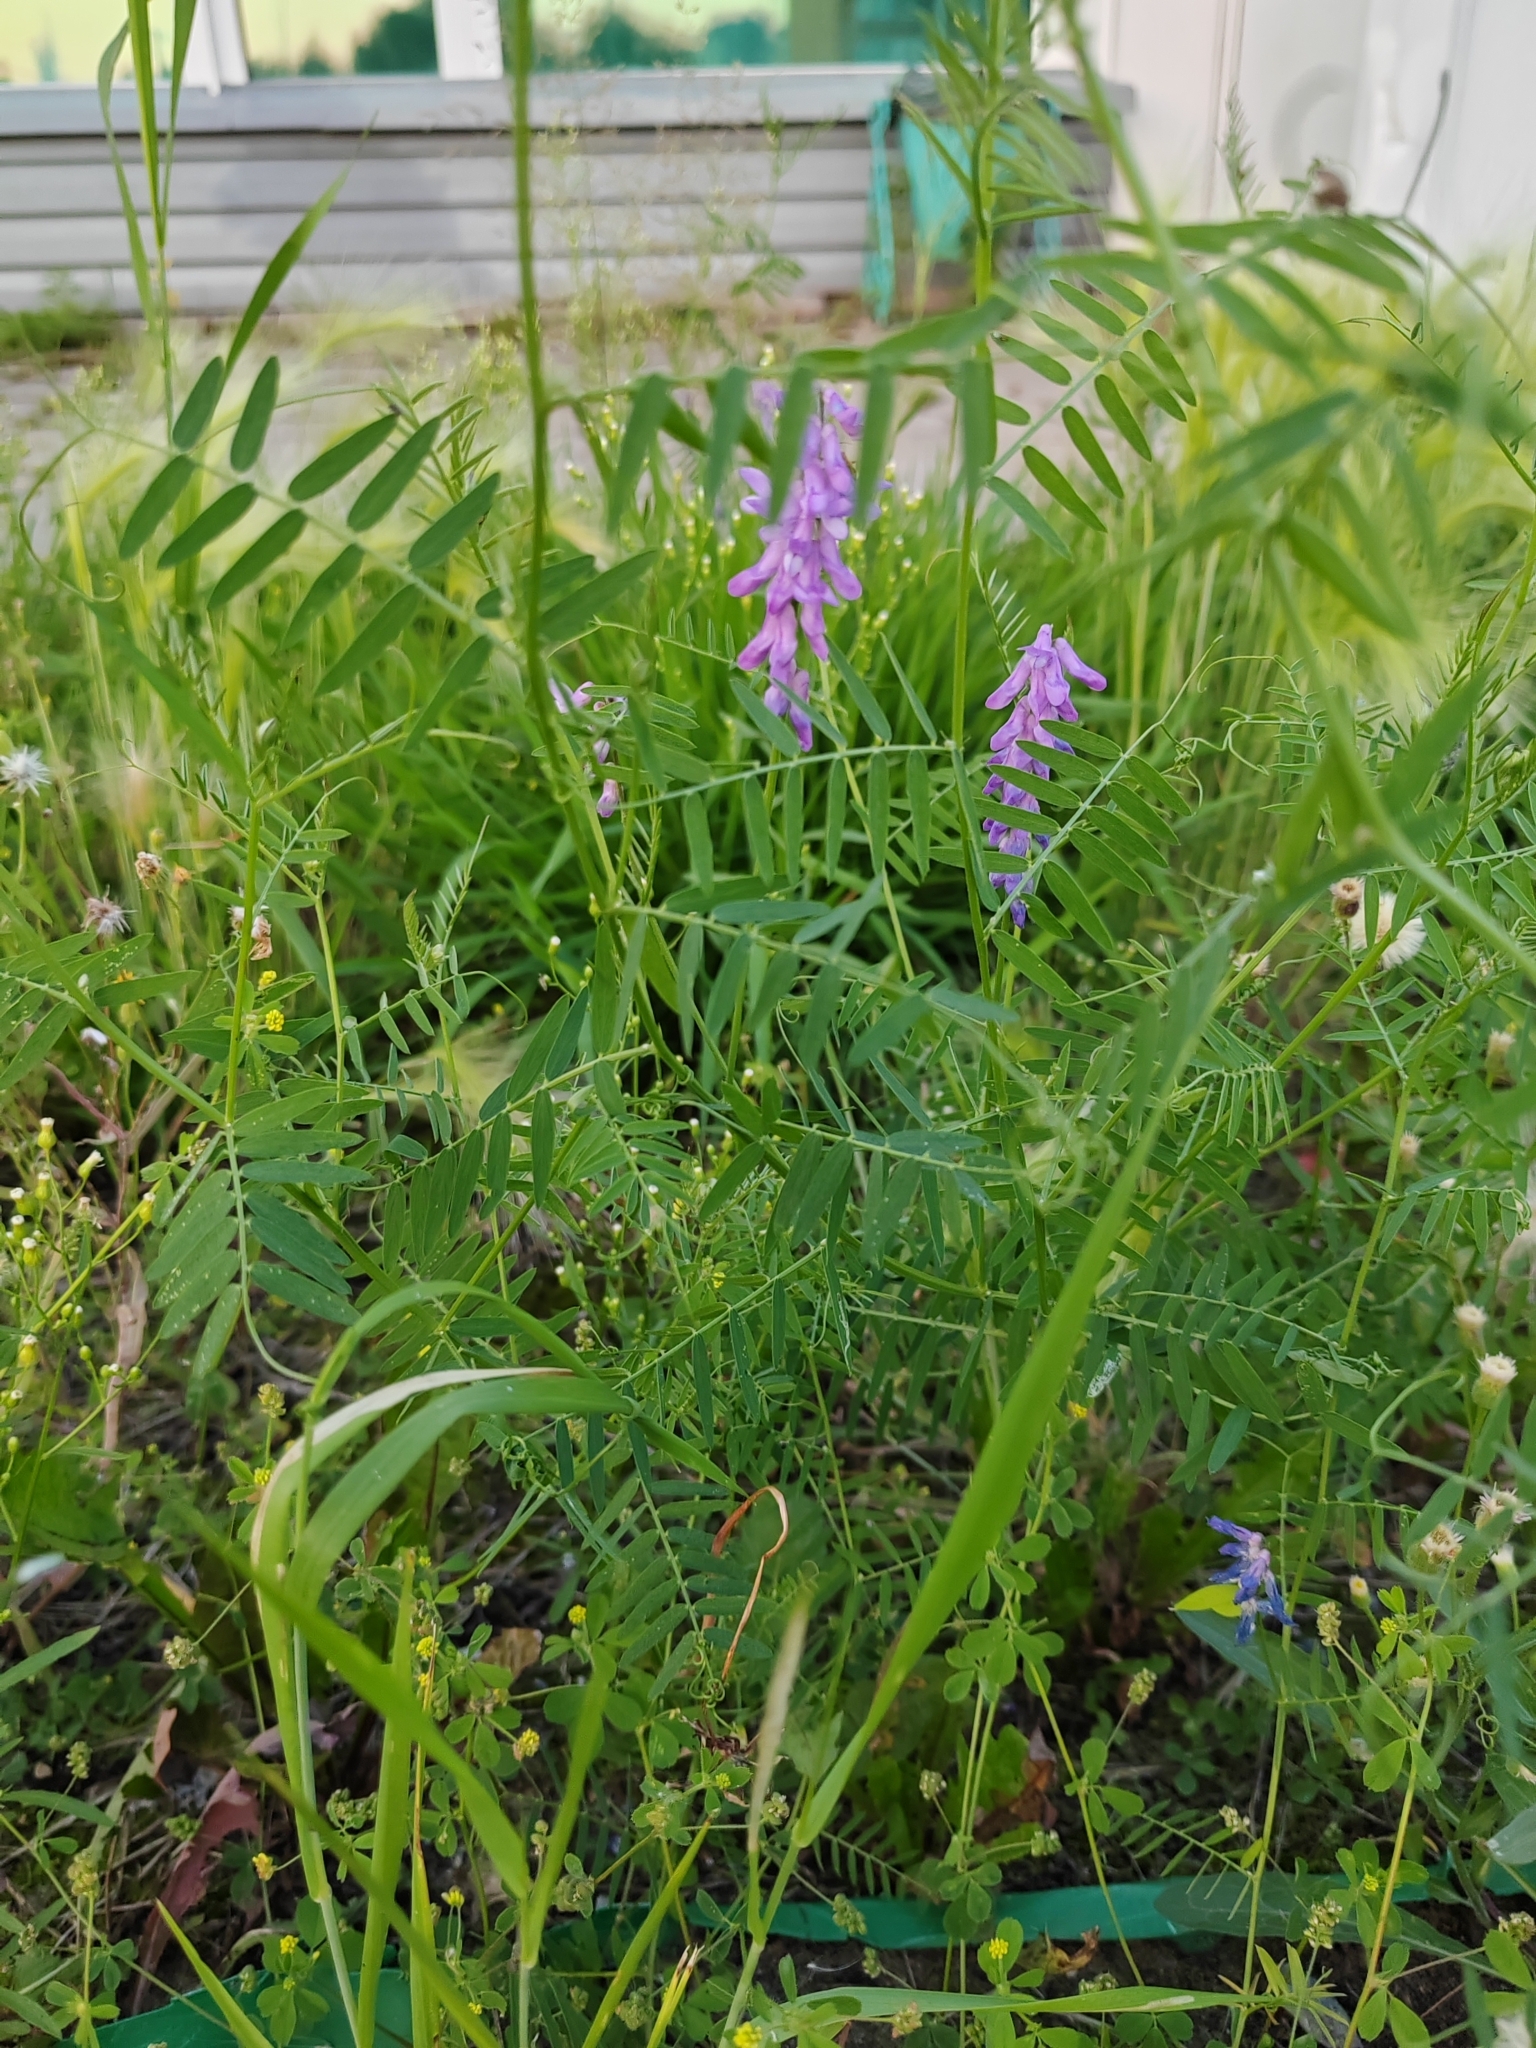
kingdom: Plantae
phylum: Tracheophyta
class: Magnoliopsida
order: Fabales
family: Fabaceae
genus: Vicia
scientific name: Vicia cracca
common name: Bird vetch
